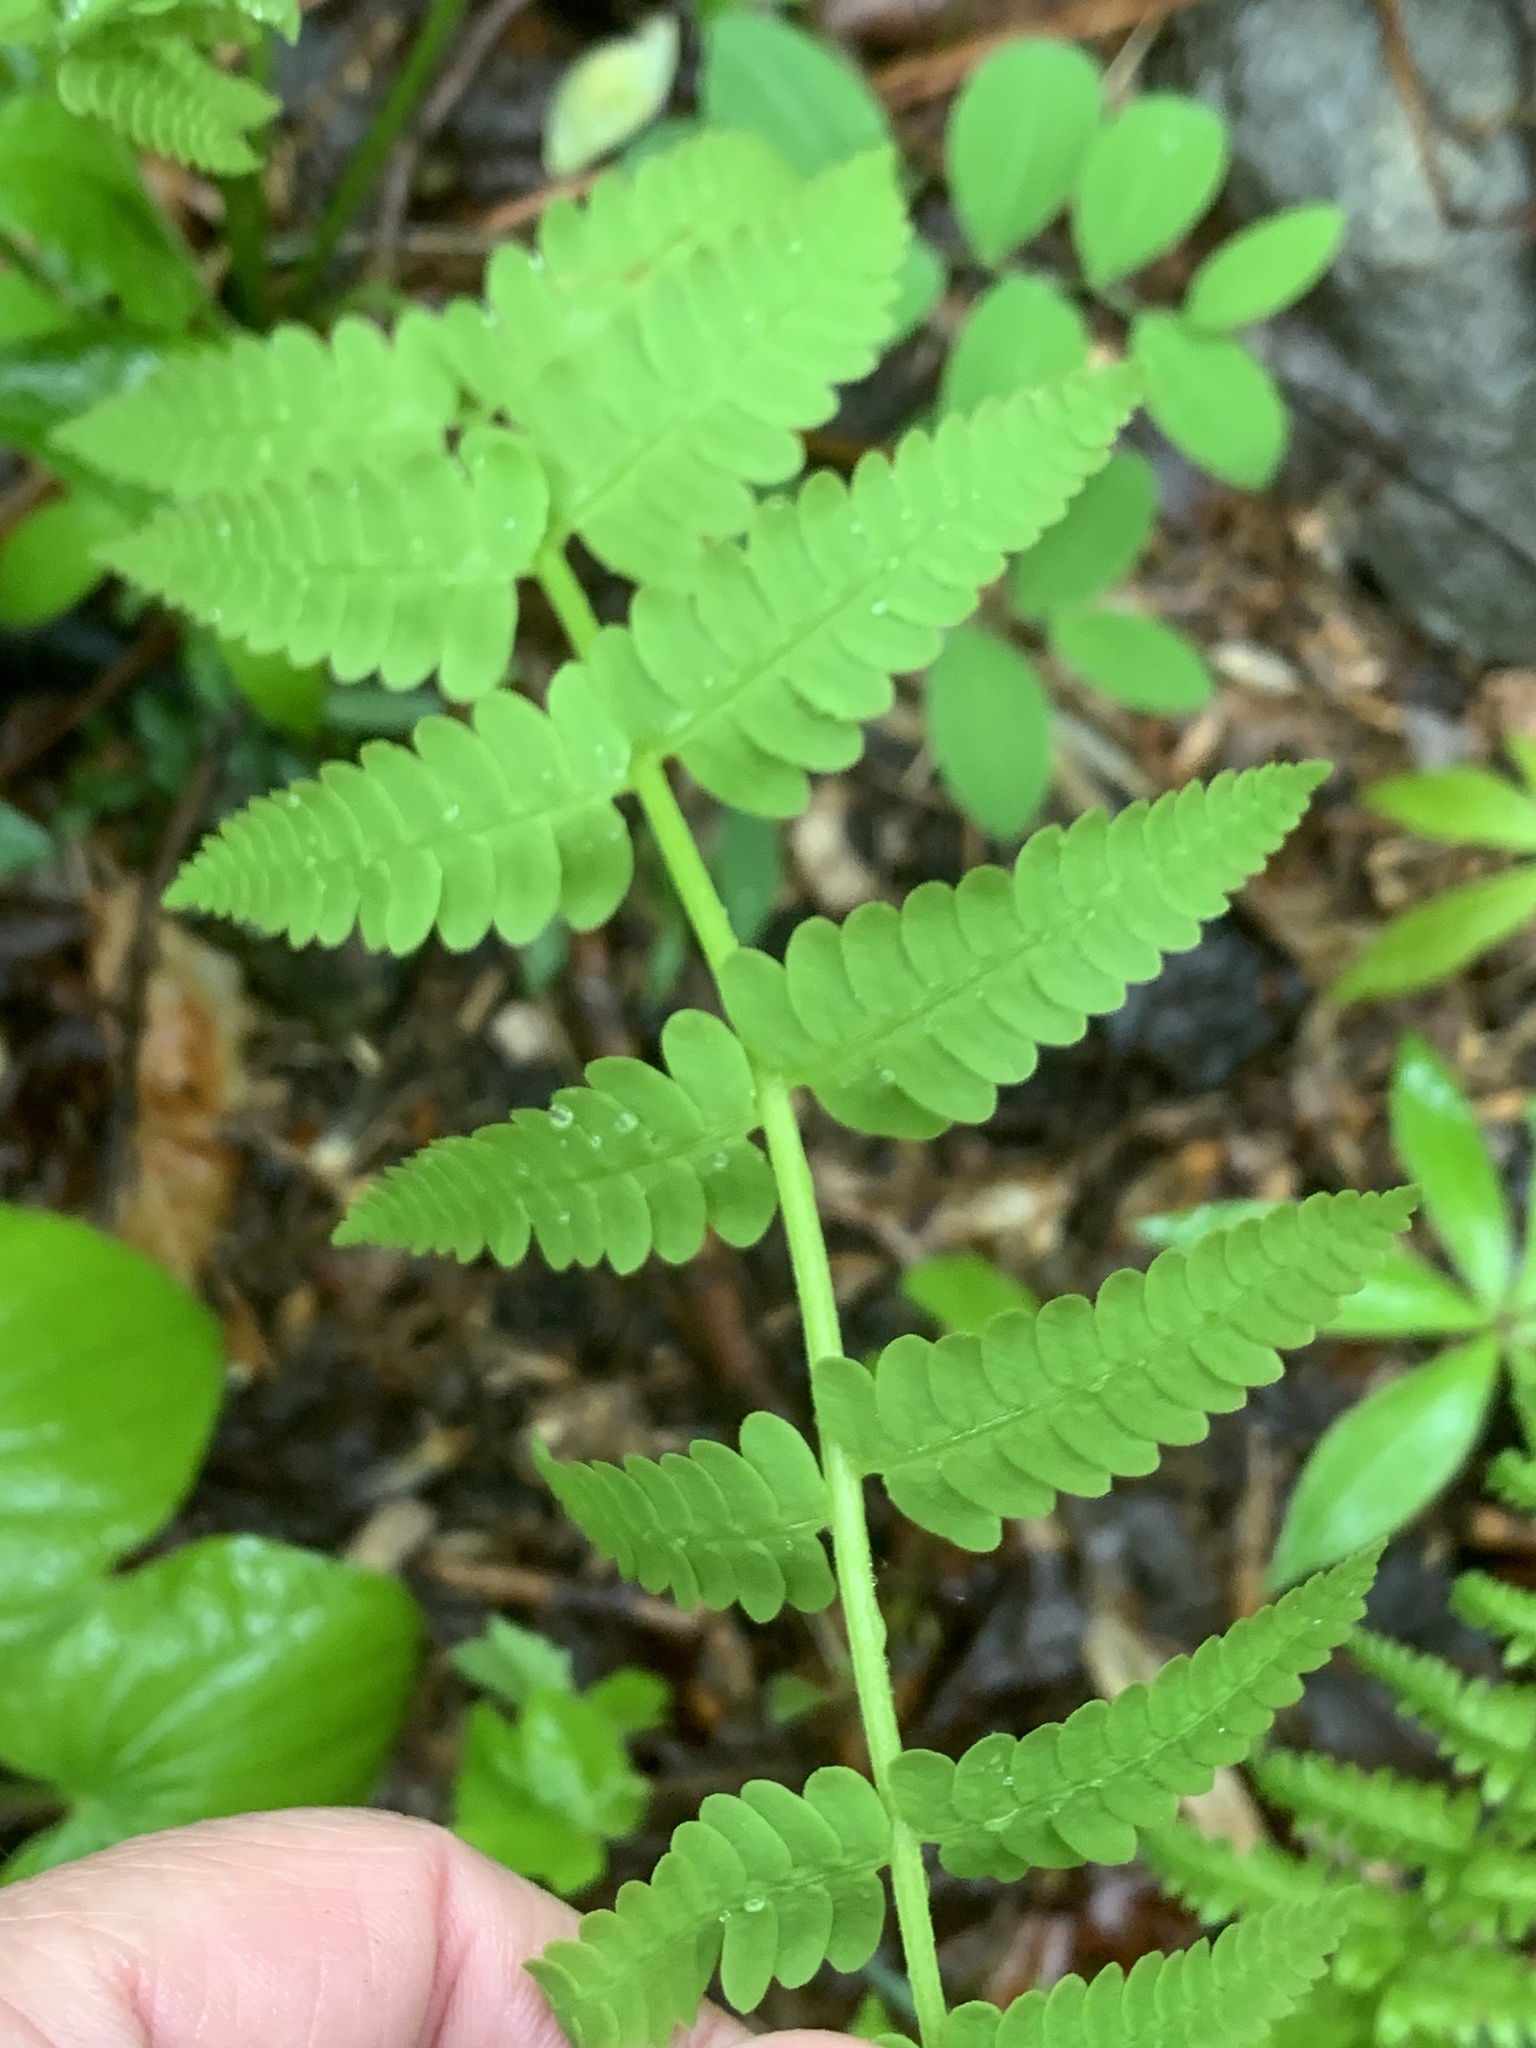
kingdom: Plantae
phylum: Tracheophyta
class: Polypodiopsida
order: Osmundales
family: Osmundaceae
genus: Claytosmunda
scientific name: Claytosmunda claytoniana
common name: Clayton's fern
